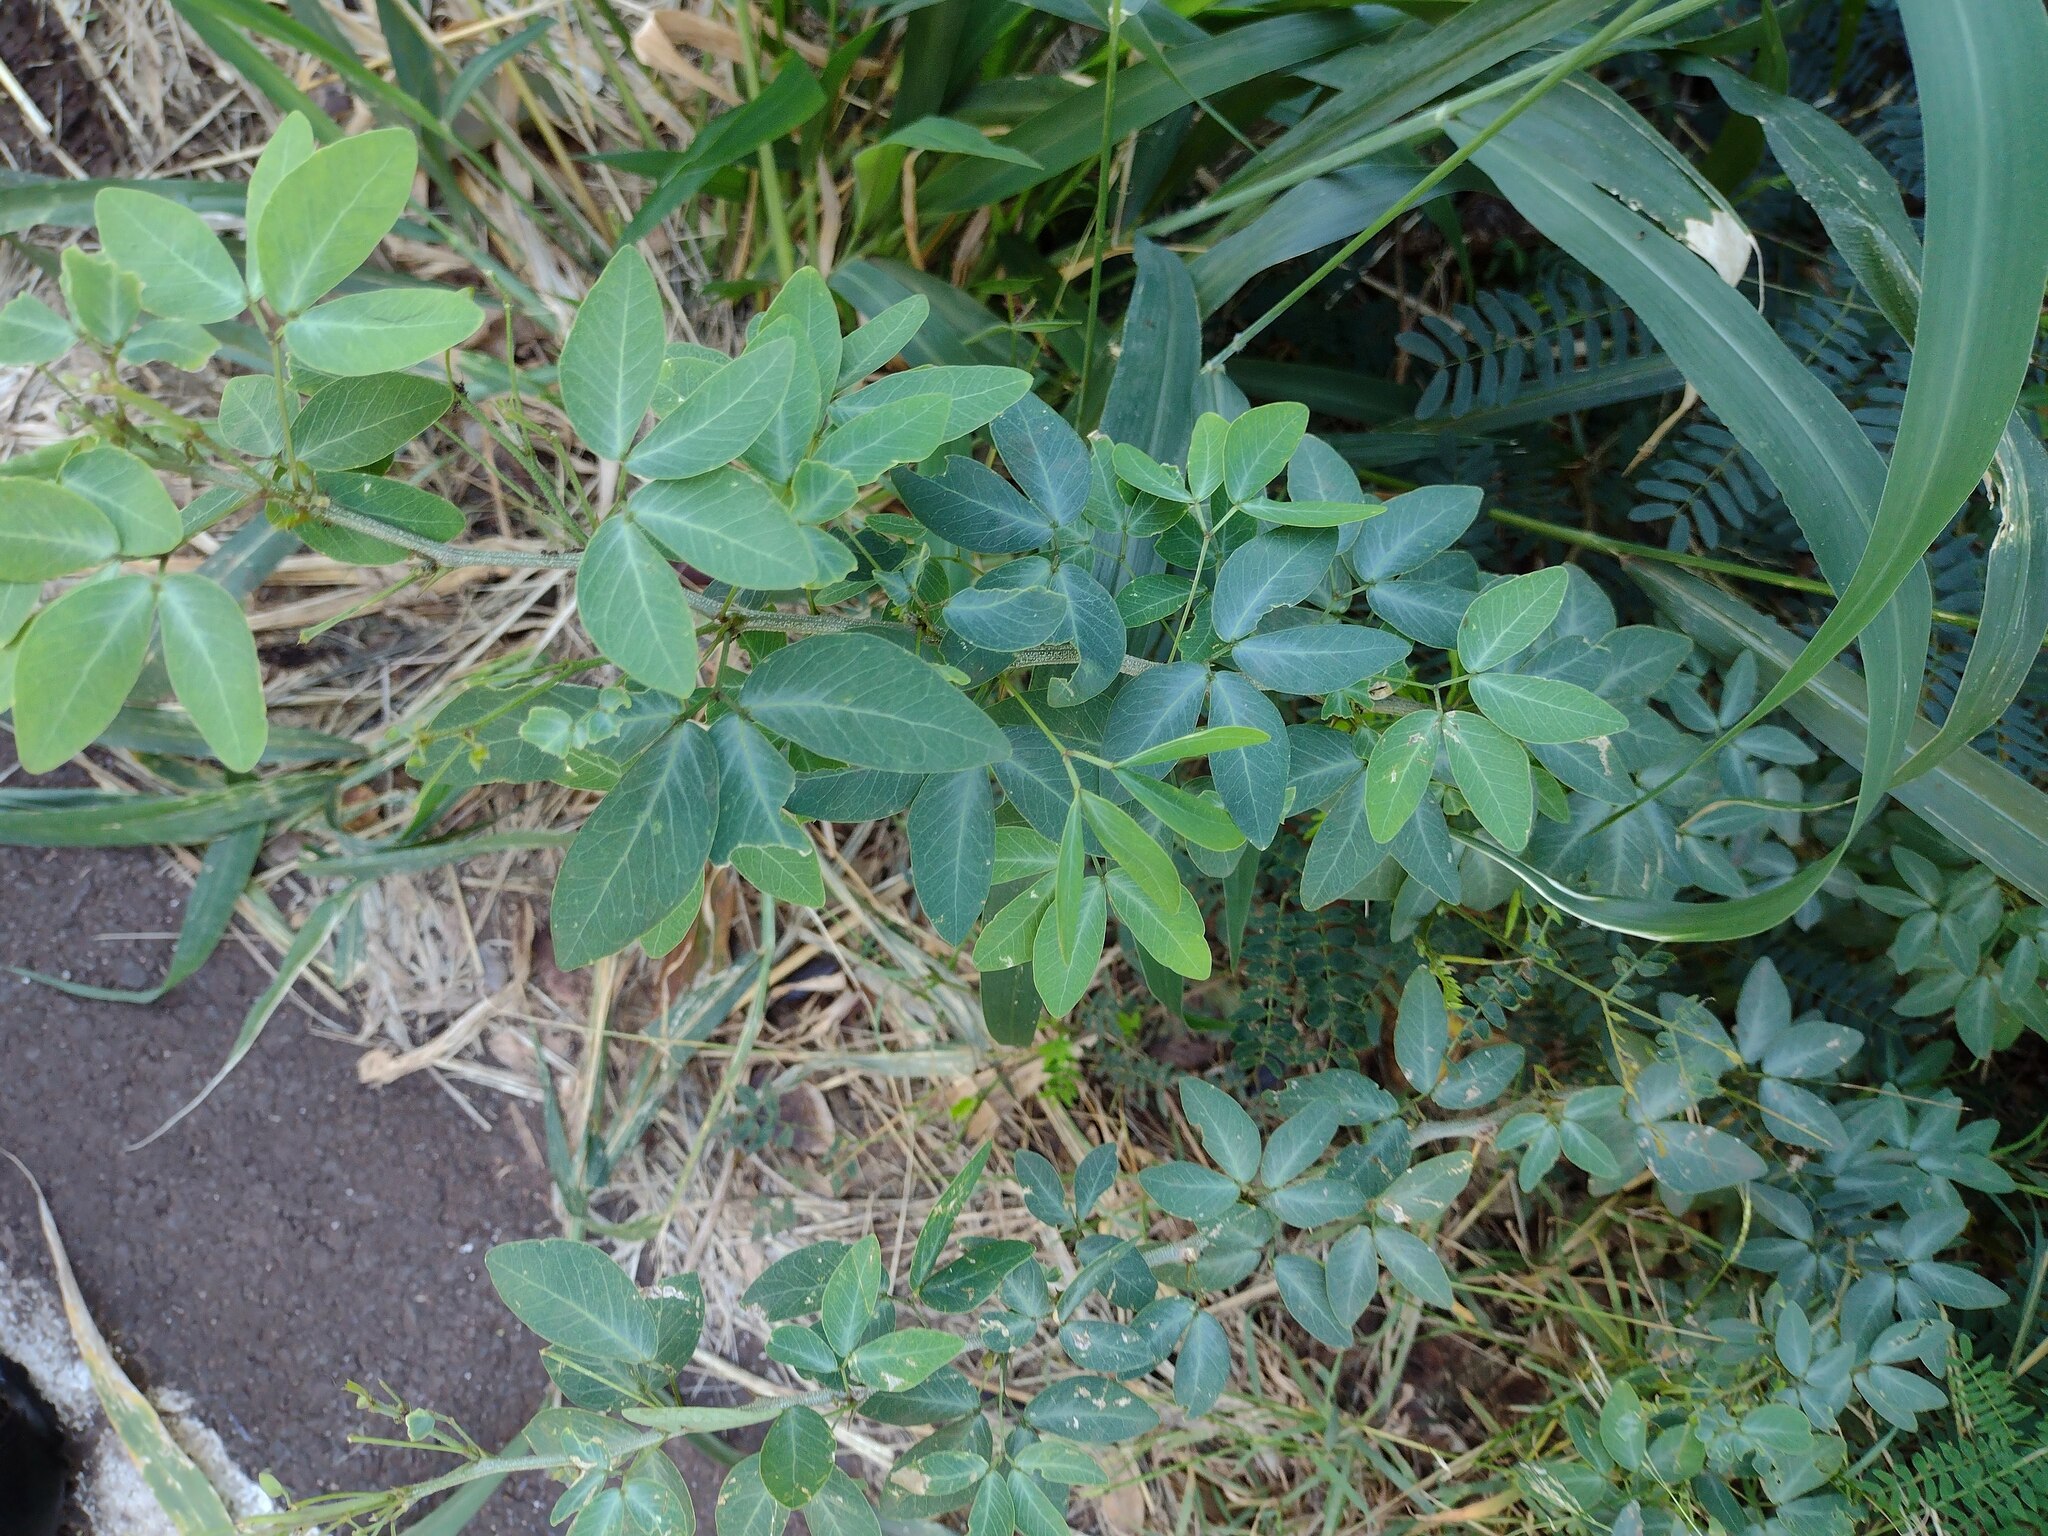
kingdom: Plantae
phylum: Tracheophyta
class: Magnoliopsida
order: Fabales
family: Fabaceae
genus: Pithecellobium
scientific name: Pithecellobium dulce
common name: Monkeypod
